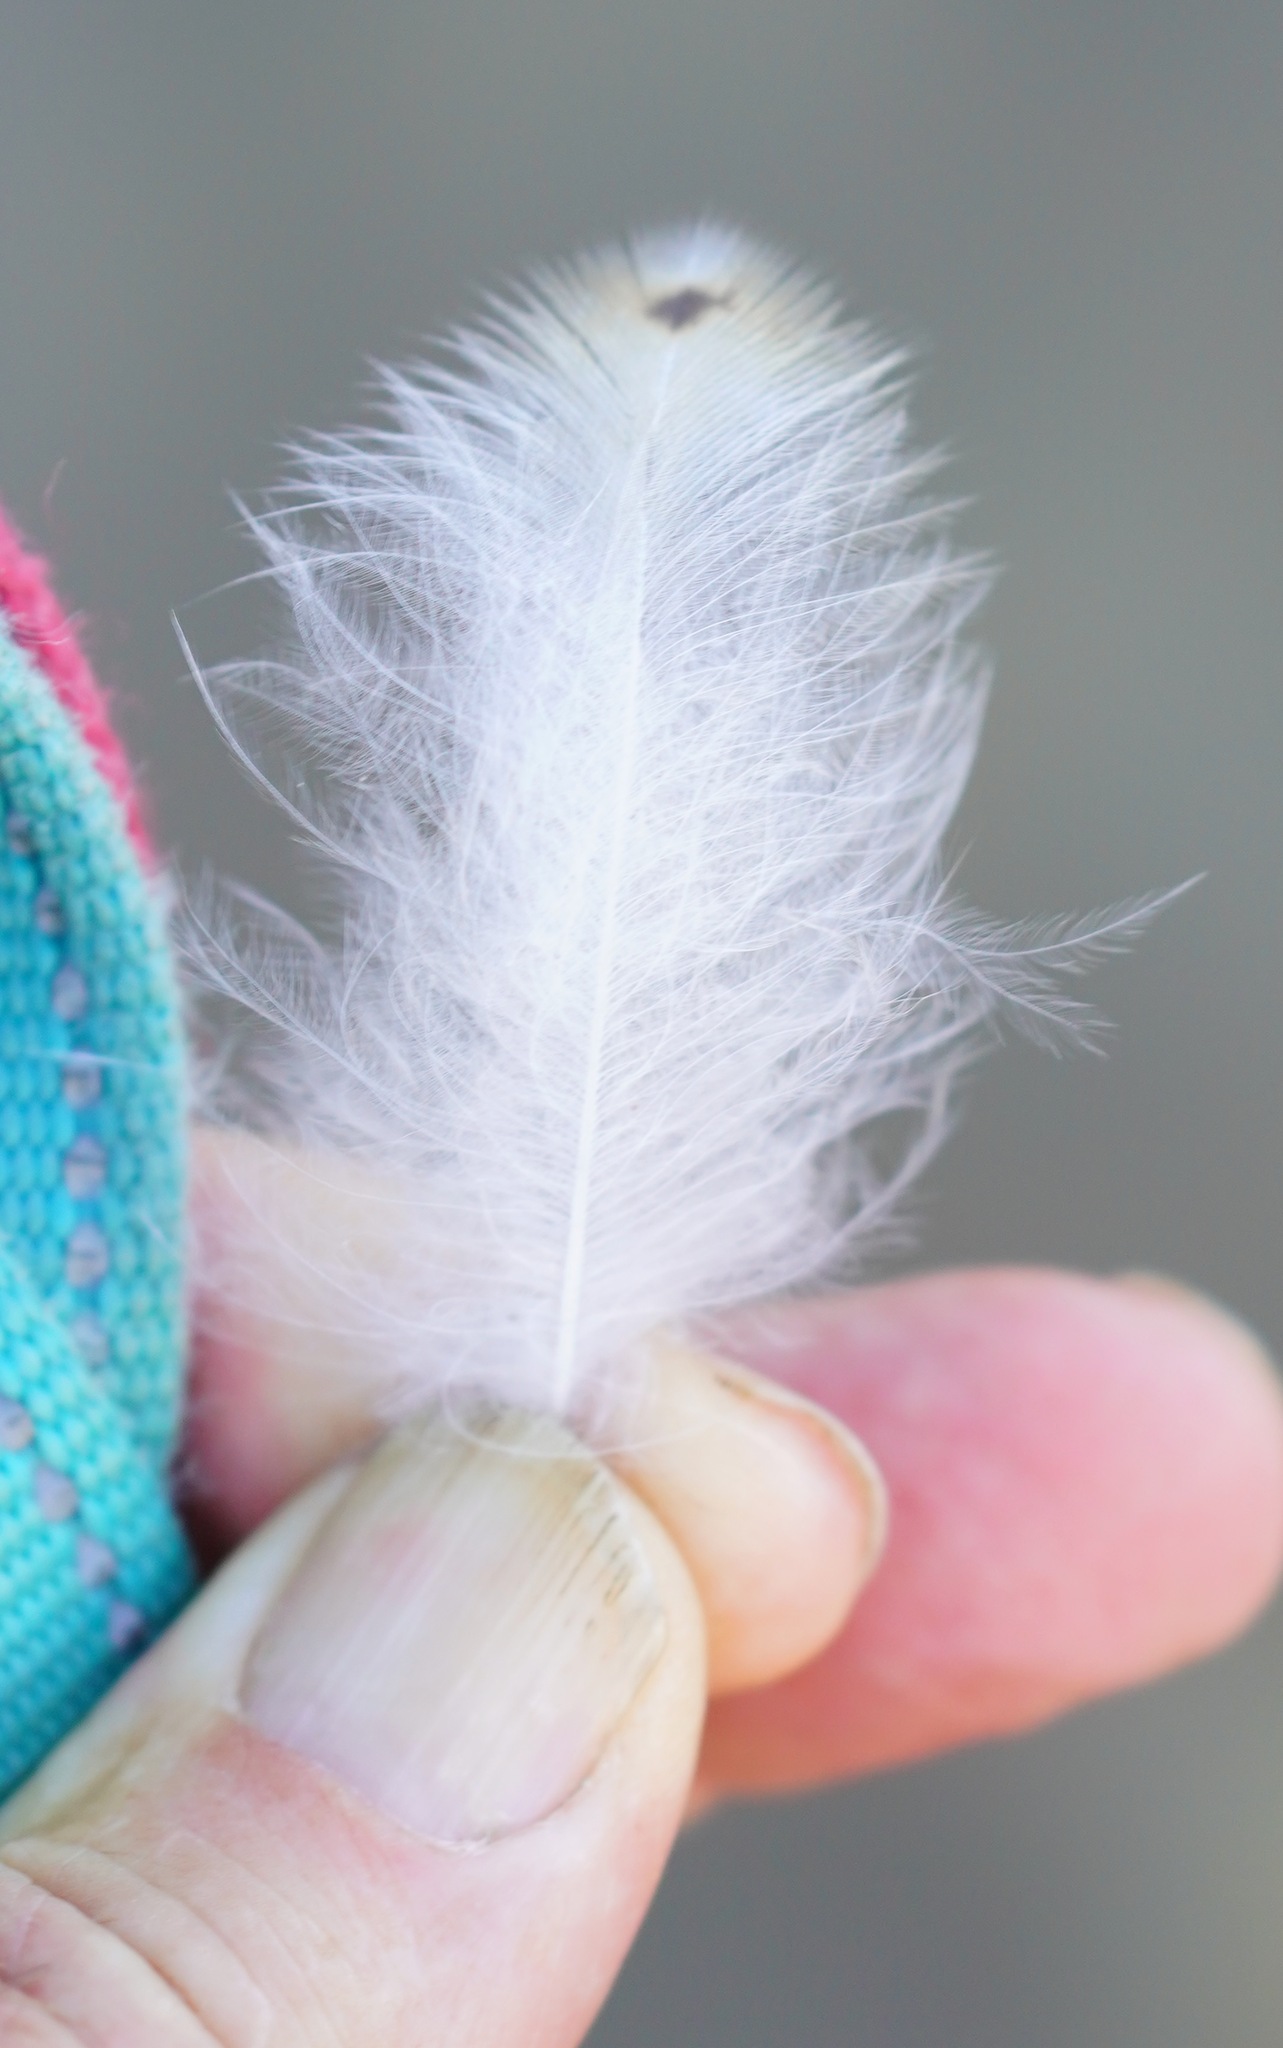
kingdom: Animalia
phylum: Chordata
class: Aves
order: Strigiformes
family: Tytonidae
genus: Tyto
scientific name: Tyto alba
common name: Barn owl
